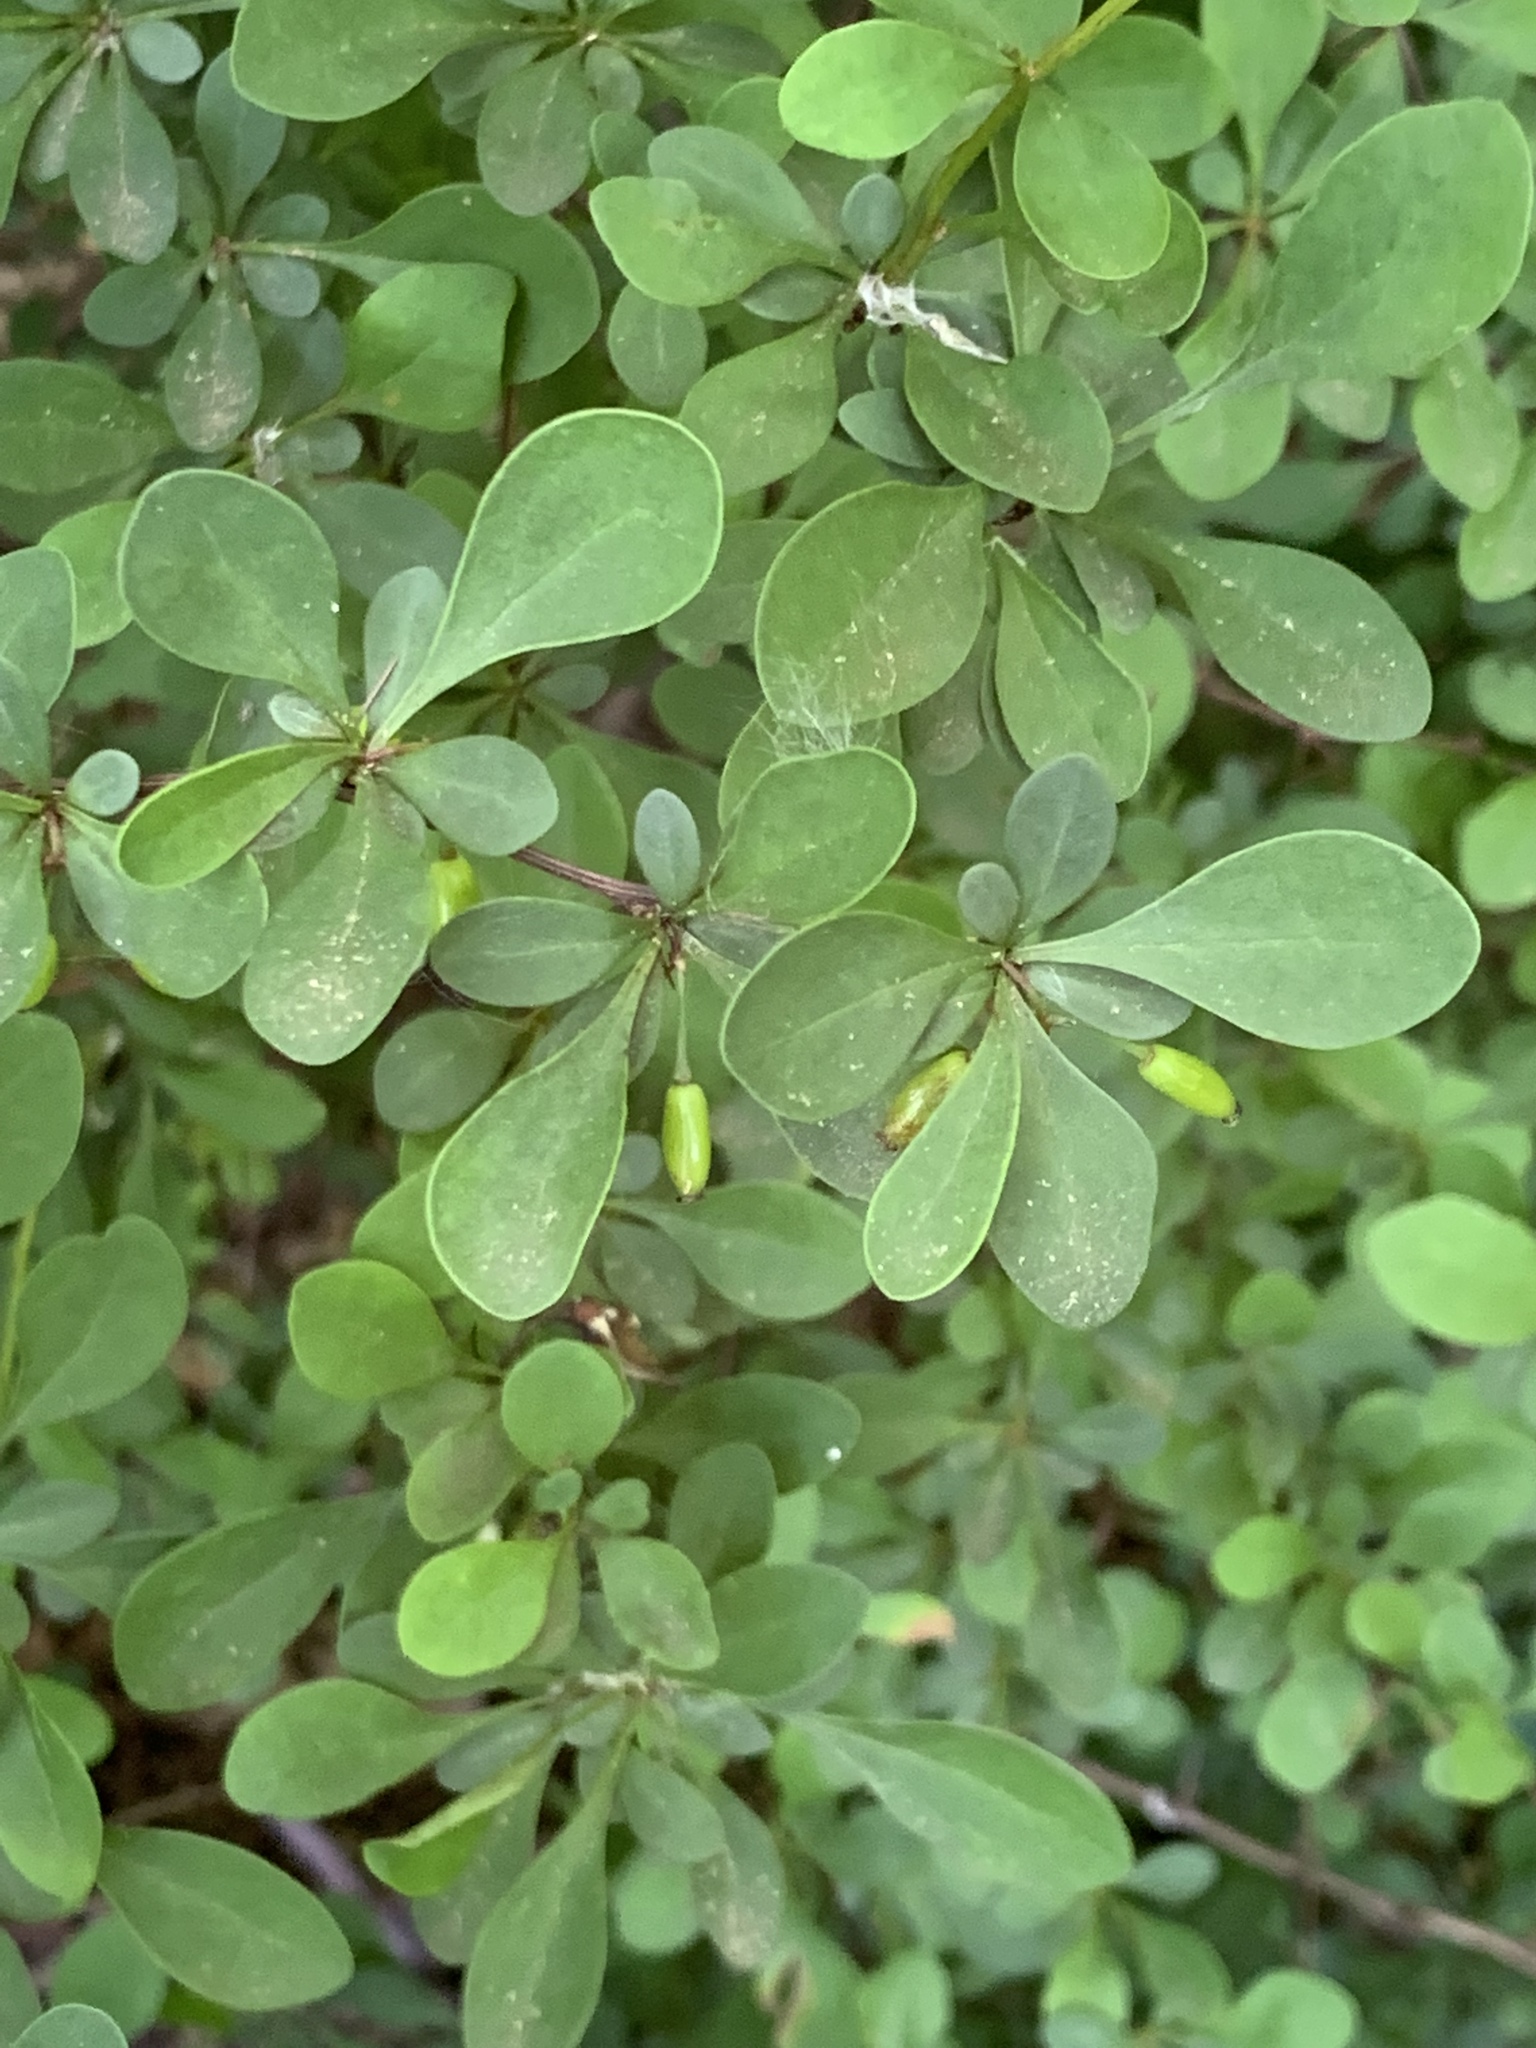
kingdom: Plantae
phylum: Tracheophyta
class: Magnoliopsida
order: Ranunculales
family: Berberidaceae
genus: Berberis
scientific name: Berberis thunbergii
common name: Japanese barberry
